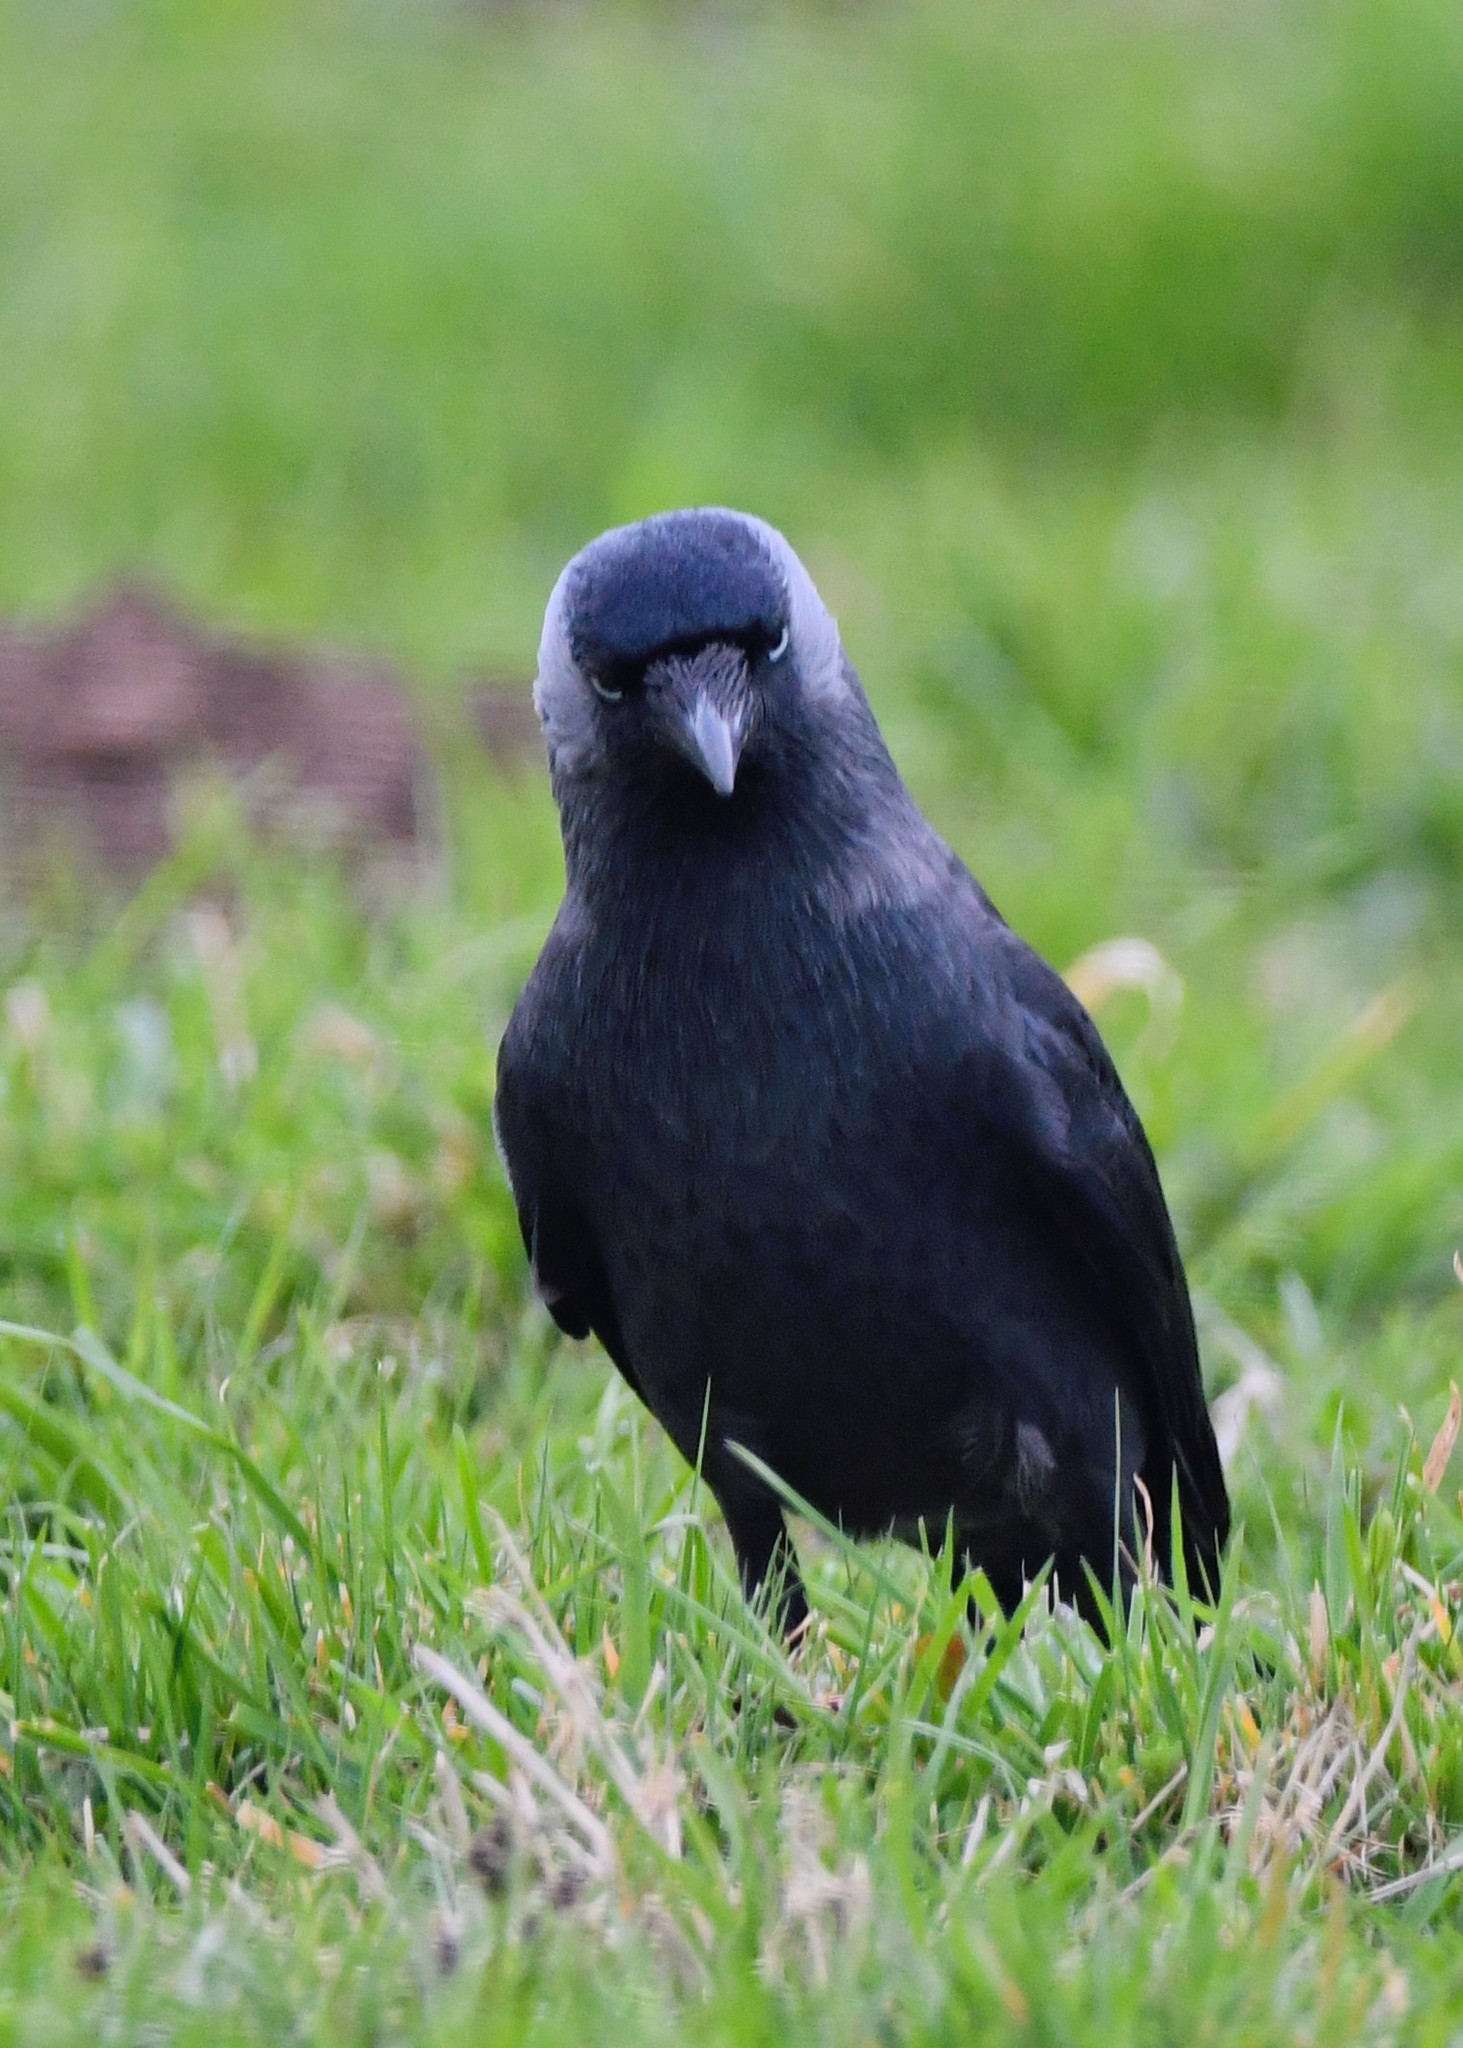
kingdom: Animalia
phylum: Chordata
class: Aves
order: Passeriformes
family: Corvidae
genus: Coloeus
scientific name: Coloeus monedula
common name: Western jackdaw
